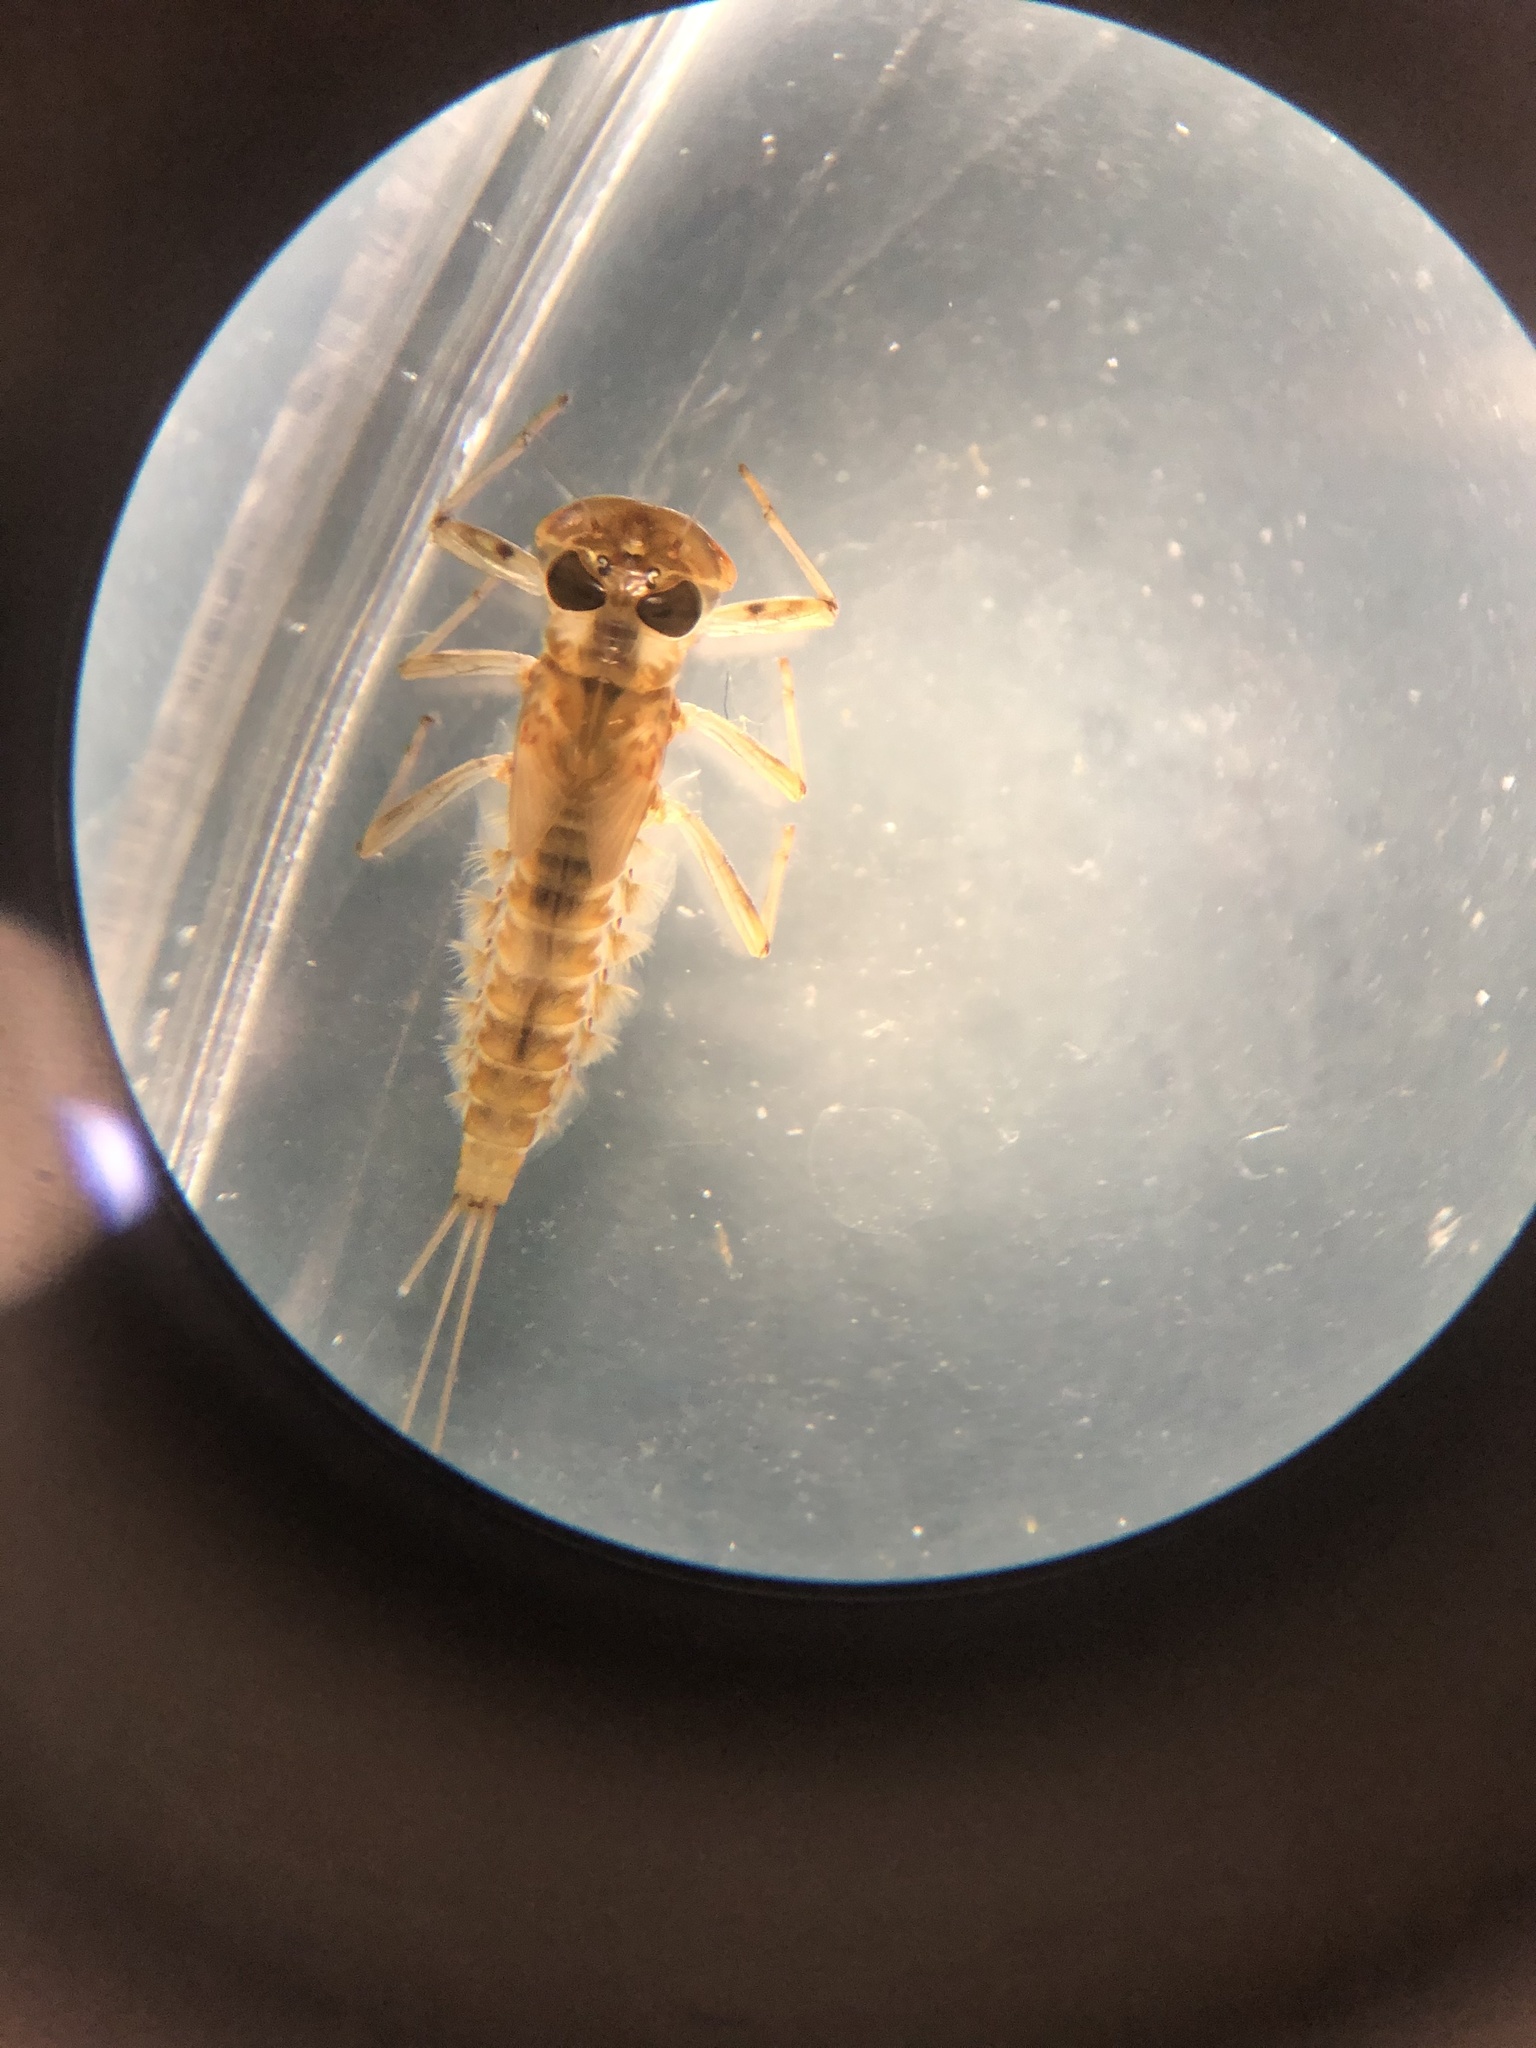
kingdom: Animalia
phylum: Arthropoda
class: Insecta
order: Ephemeroptera
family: Heptageniidae
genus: Rhithrogena
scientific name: Rhithrogena semicolorata
